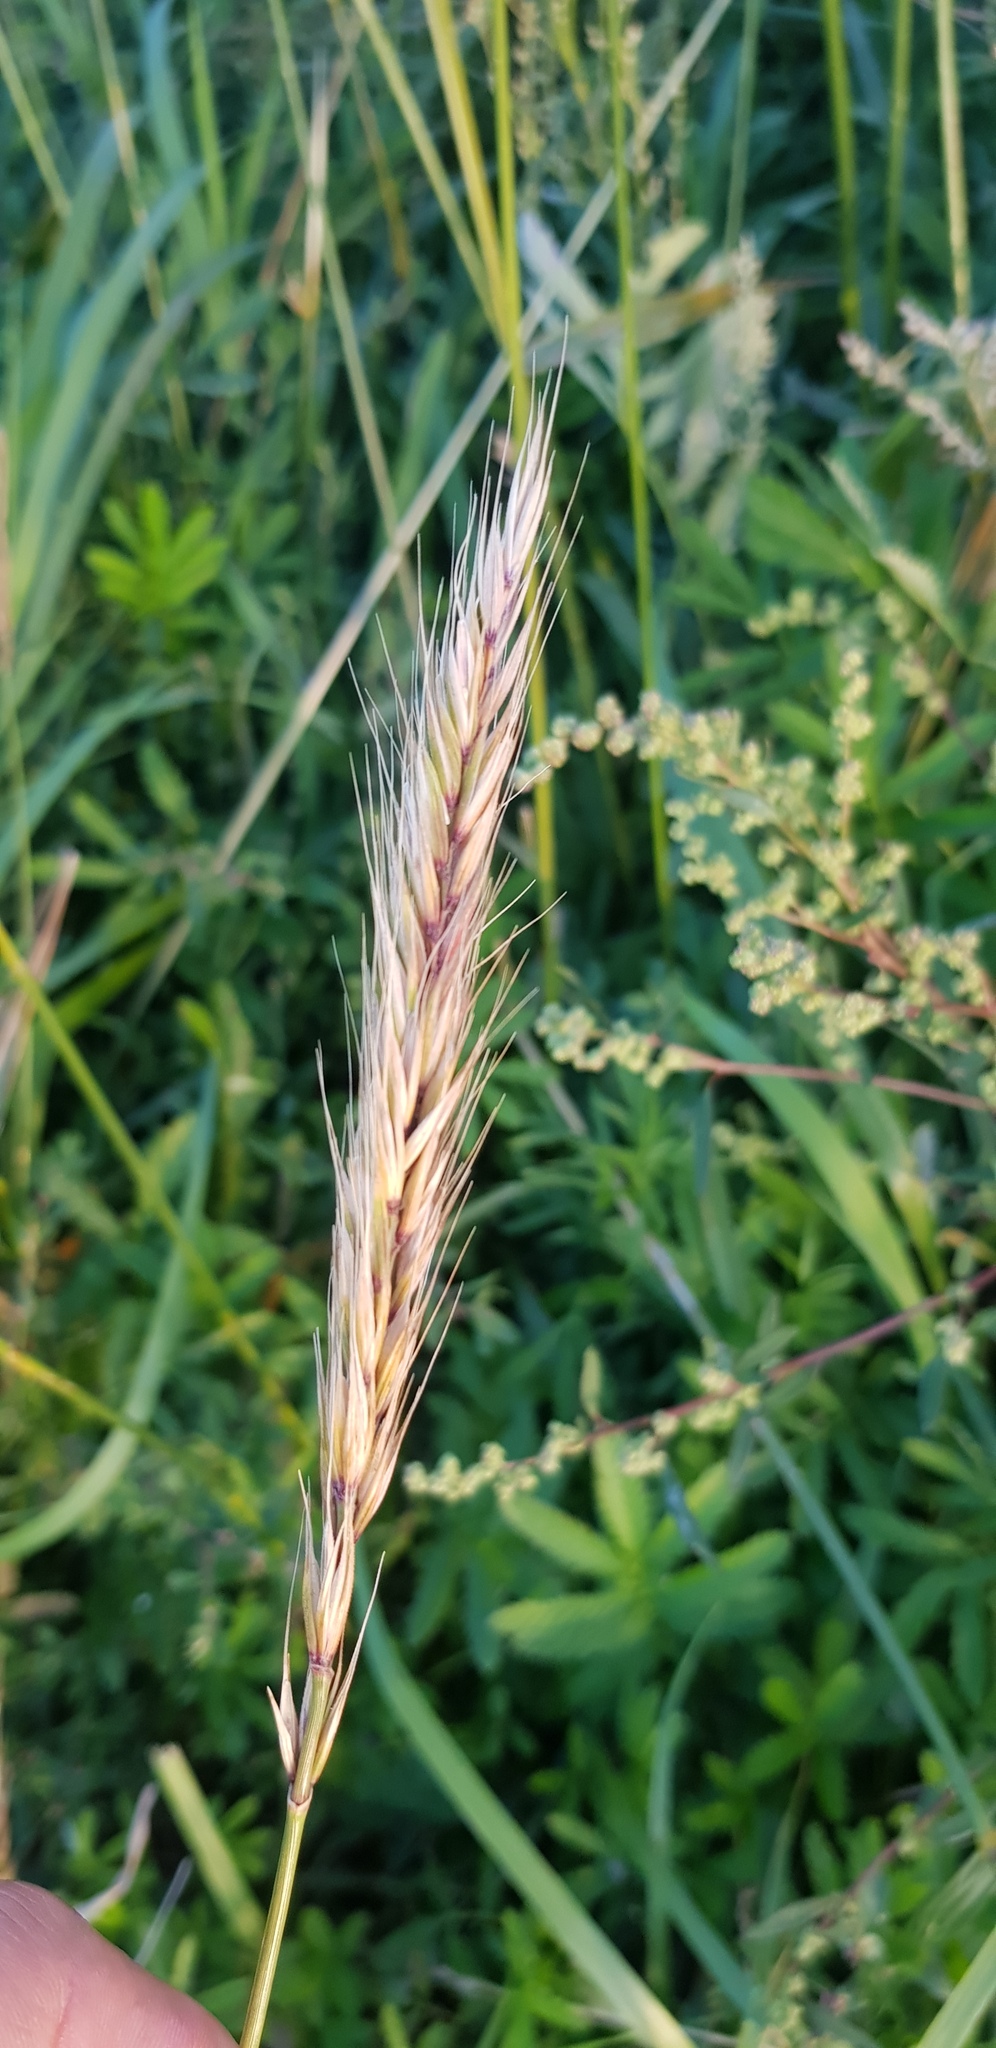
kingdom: Plantae
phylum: Tracheophyta
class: Liliopsida
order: Poales
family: Poaceae
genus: Elymus
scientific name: Elymus repens
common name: Quackgrass
